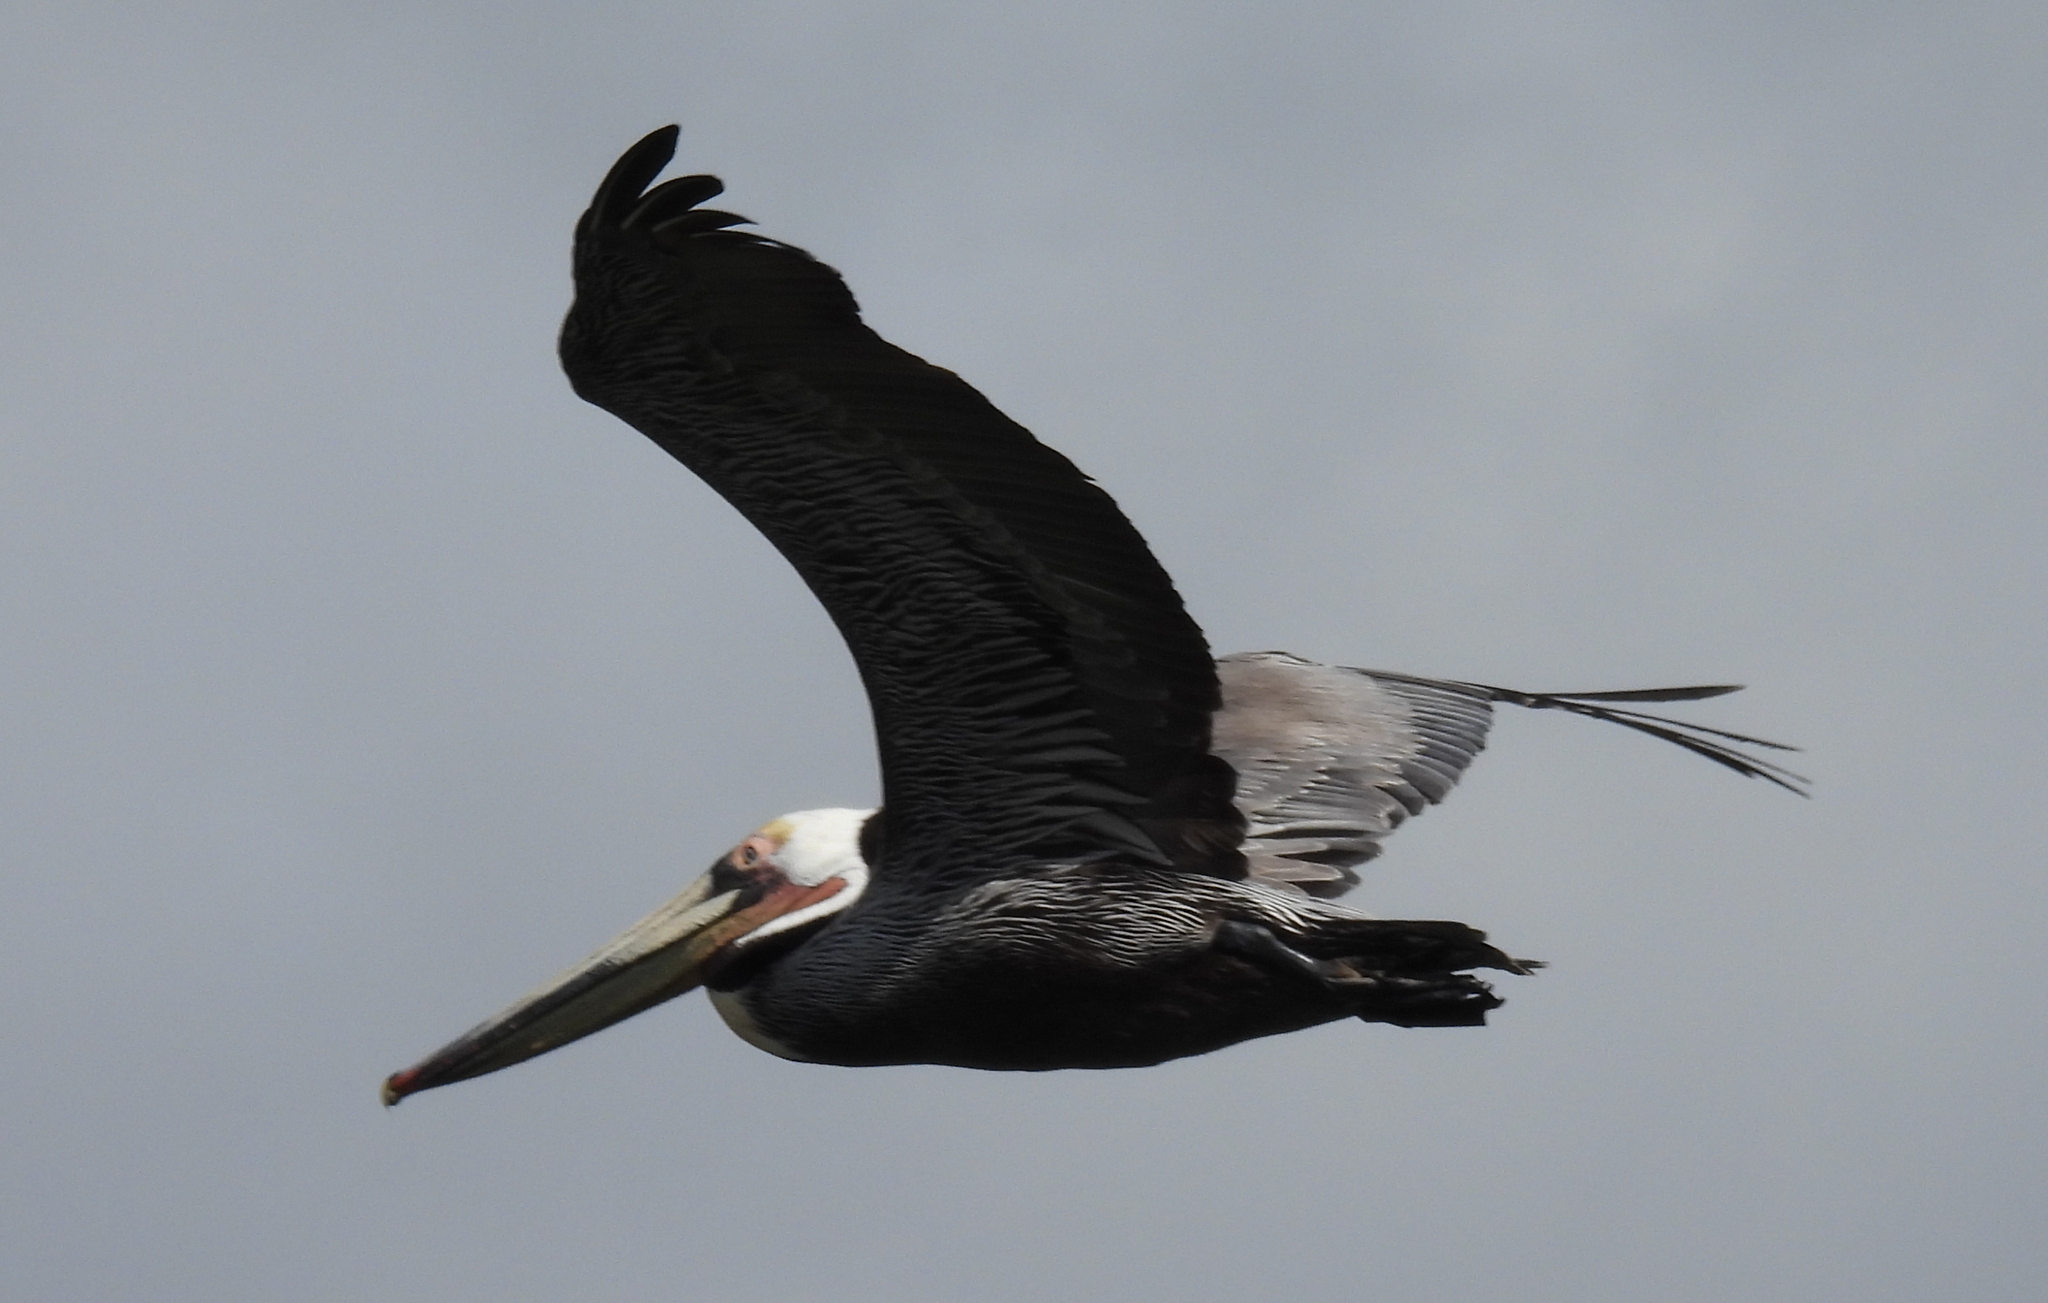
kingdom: Animalia
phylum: Chordata
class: Aves
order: Pelecaniformes
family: Pelecanidae
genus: Pelecanus
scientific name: Pelecanus occidentalis
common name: Brown pelican
